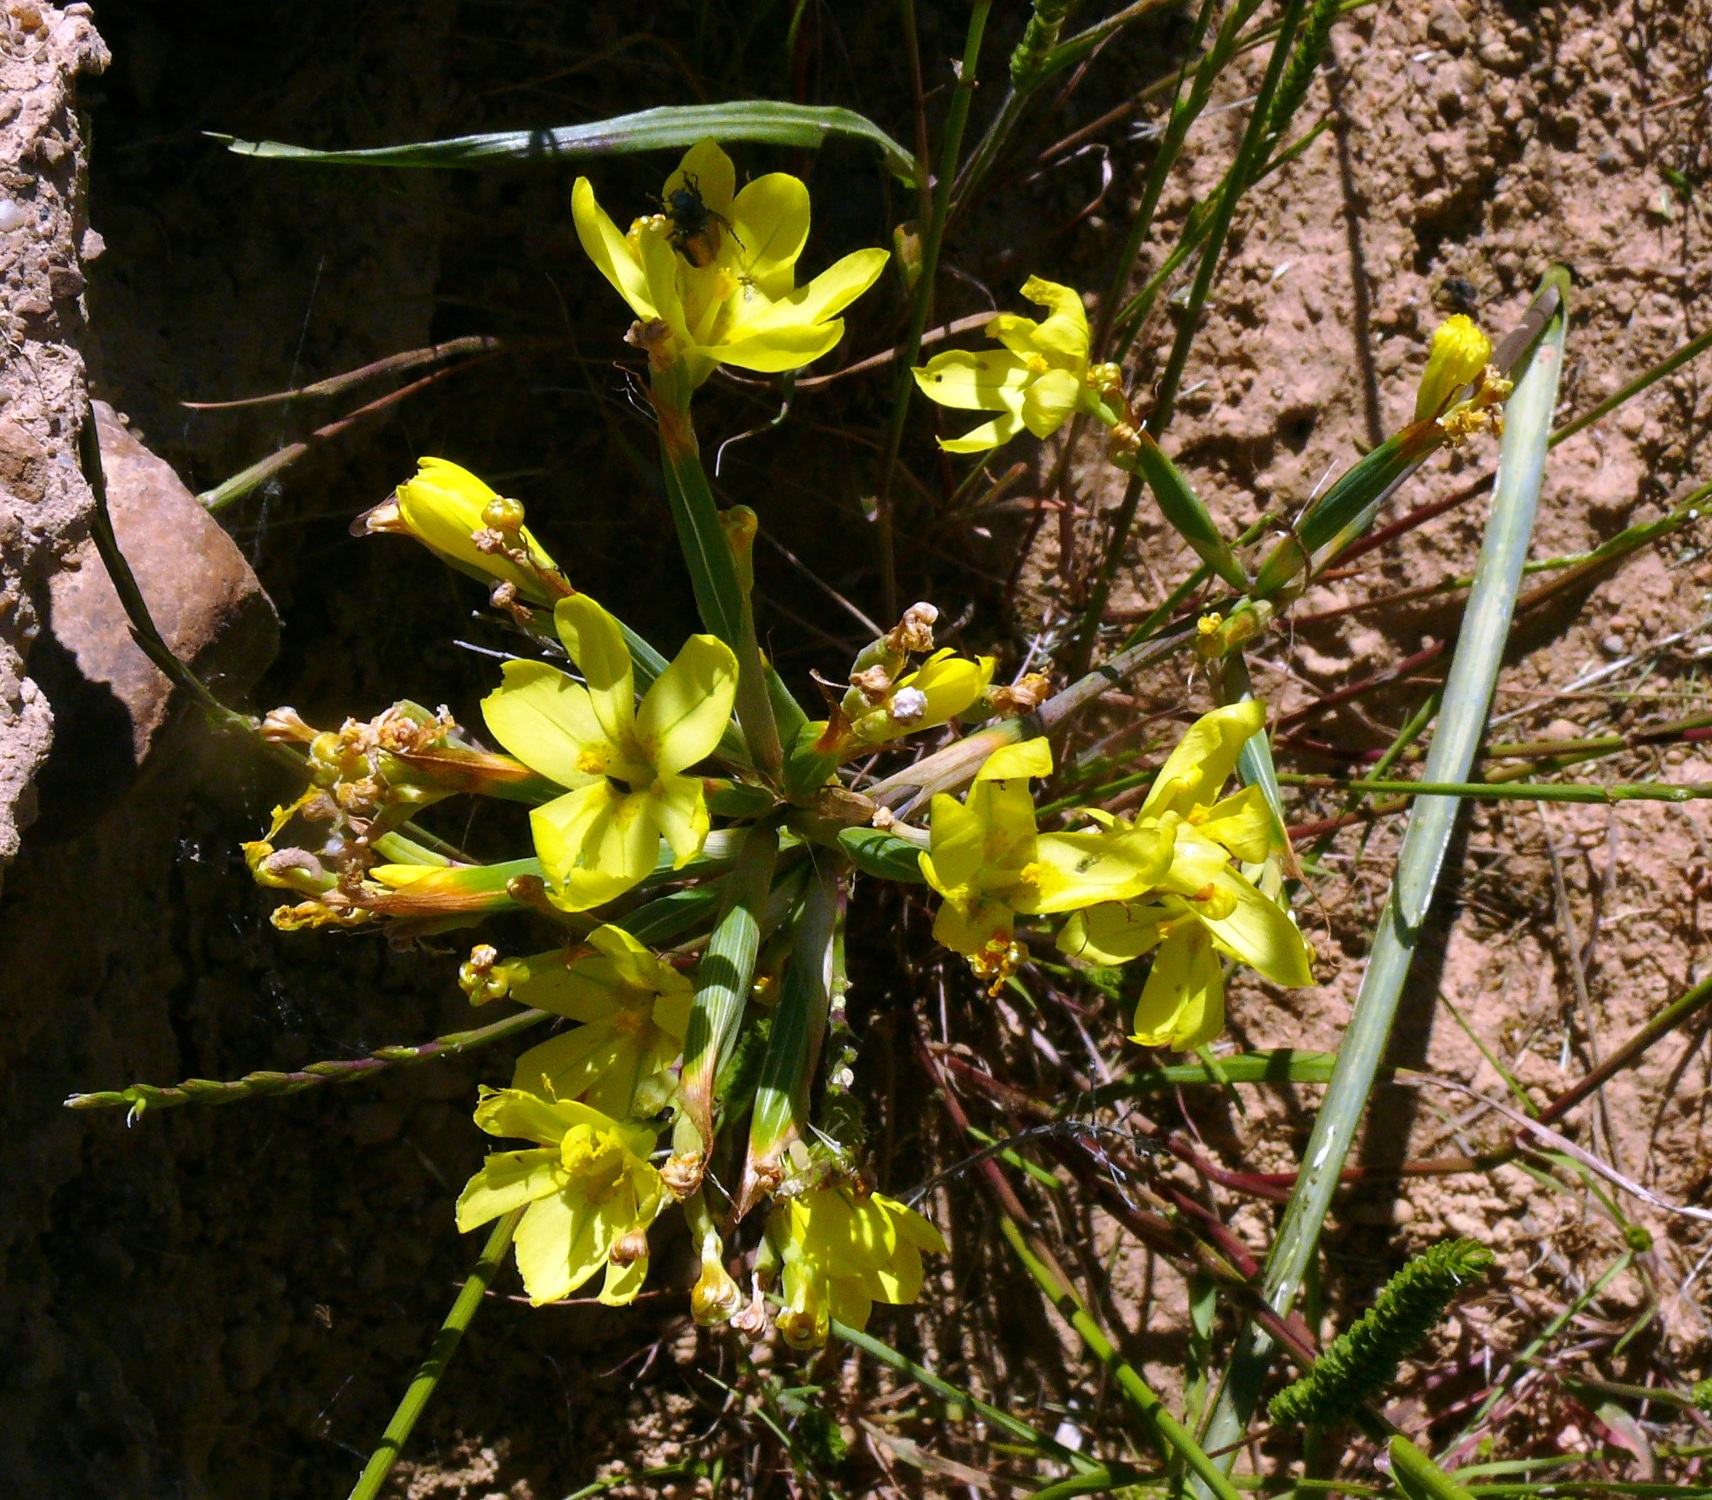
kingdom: Plantae
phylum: Tracheophyta
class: Liliopsida
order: Asparagales
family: Iridaceae
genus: Moraea
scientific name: Moraea nana
